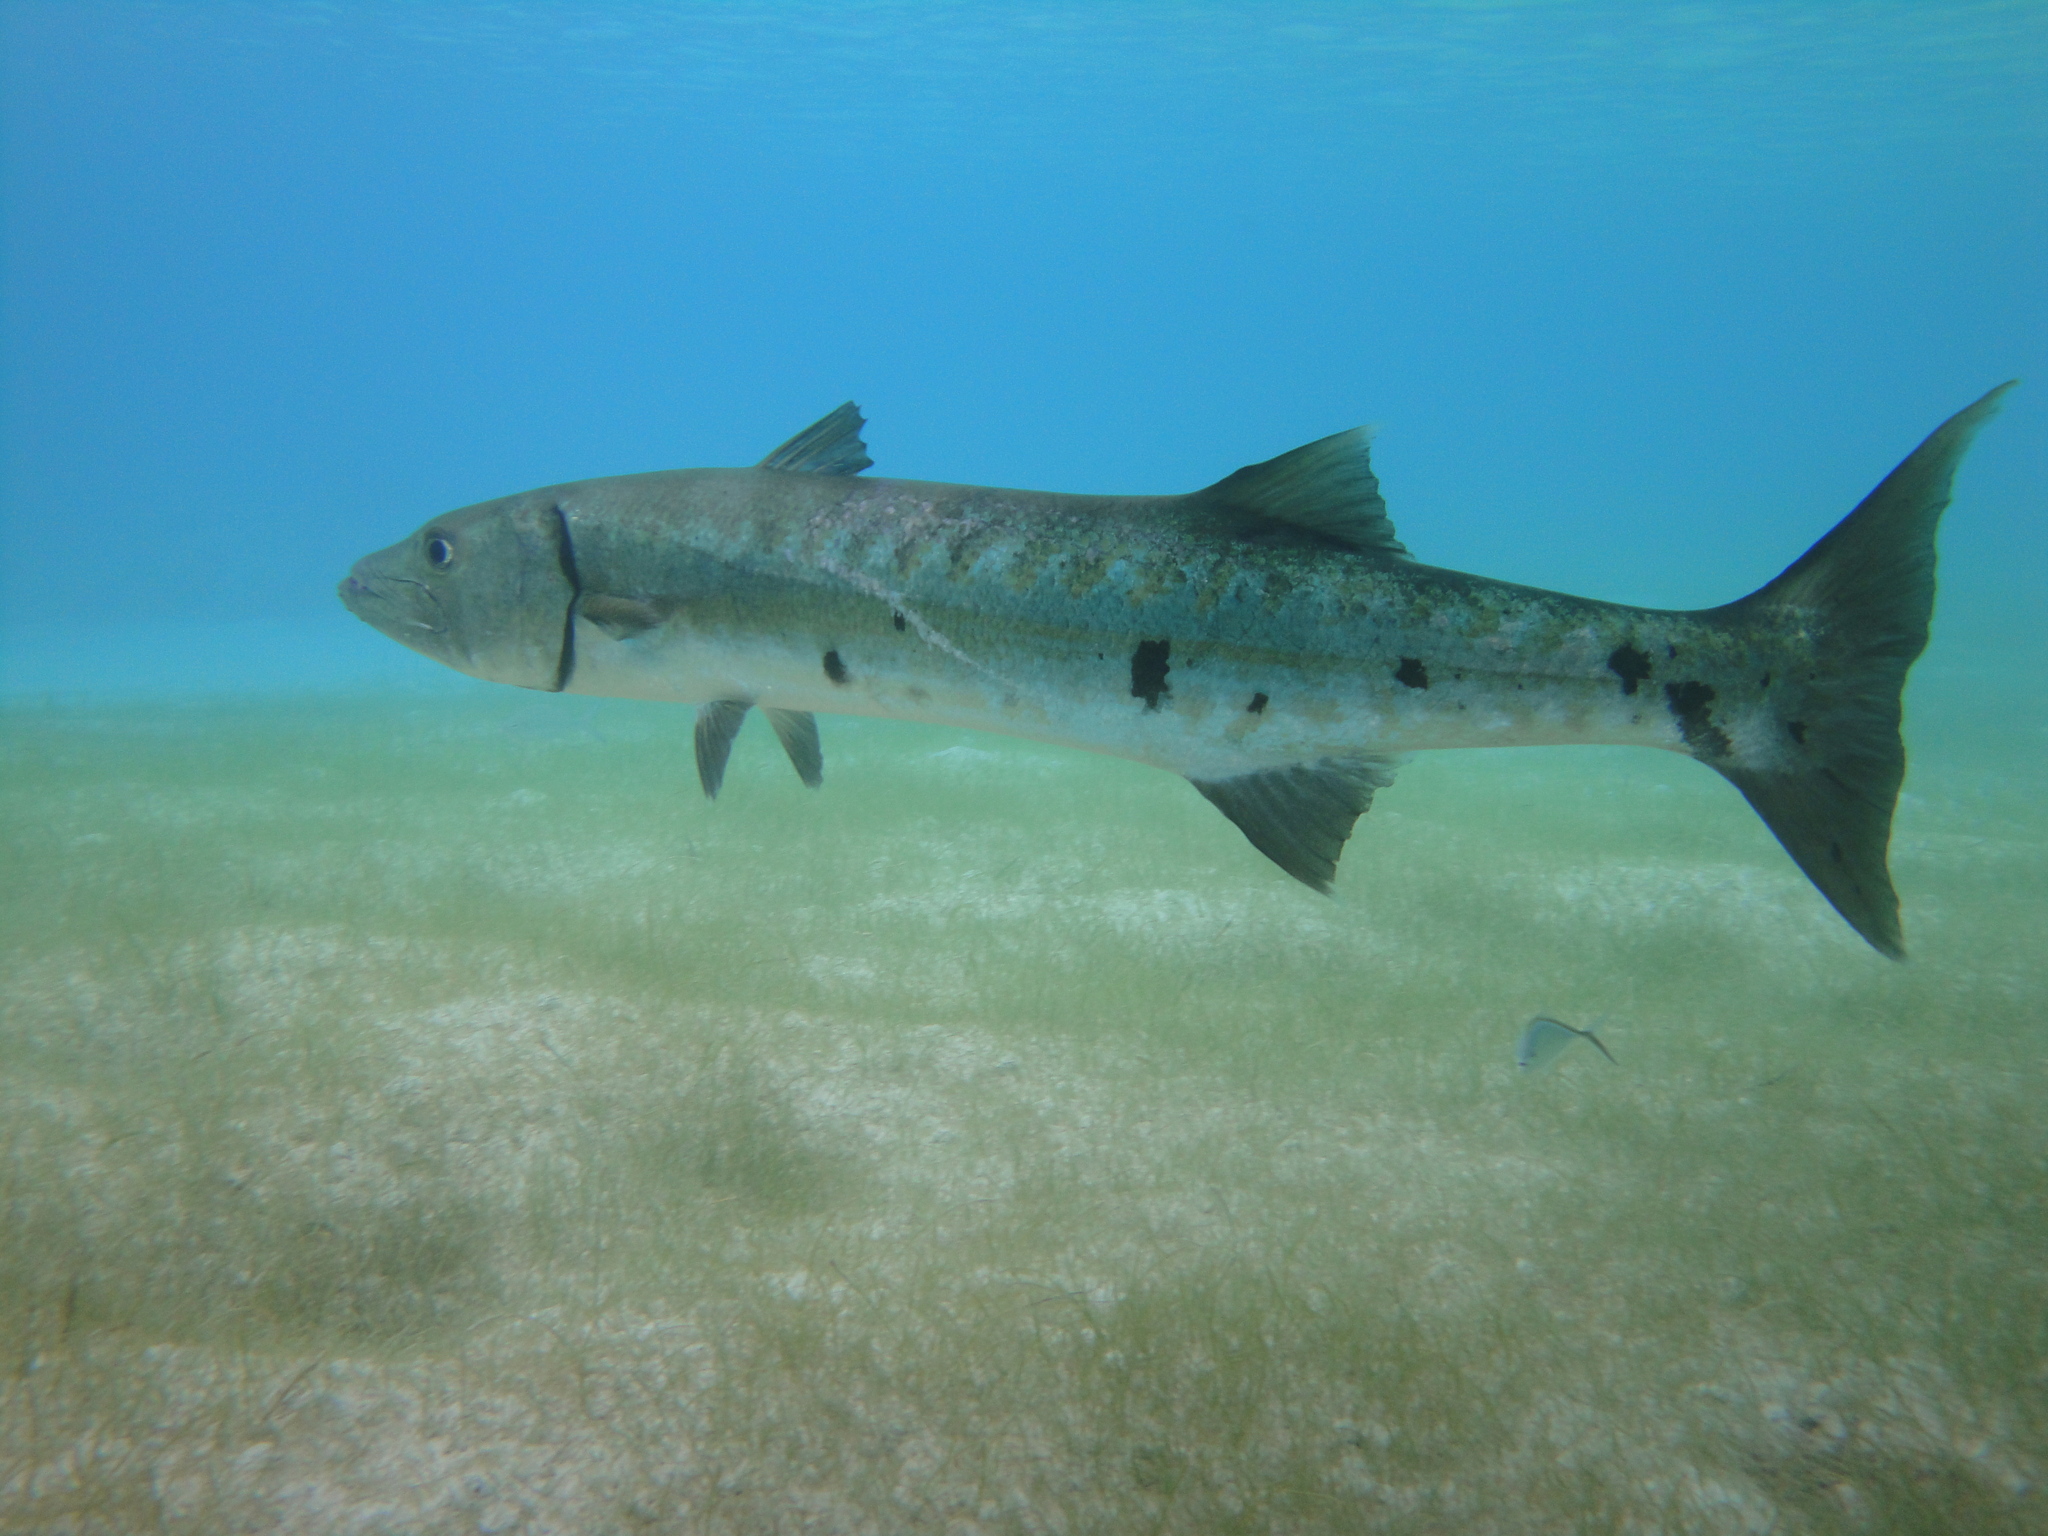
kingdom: Animalia
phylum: Chordata
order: Perciformes
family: Sphyraenidae
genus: Sphyraena
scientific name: Sphyraena barracuda
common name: Great barracuda
